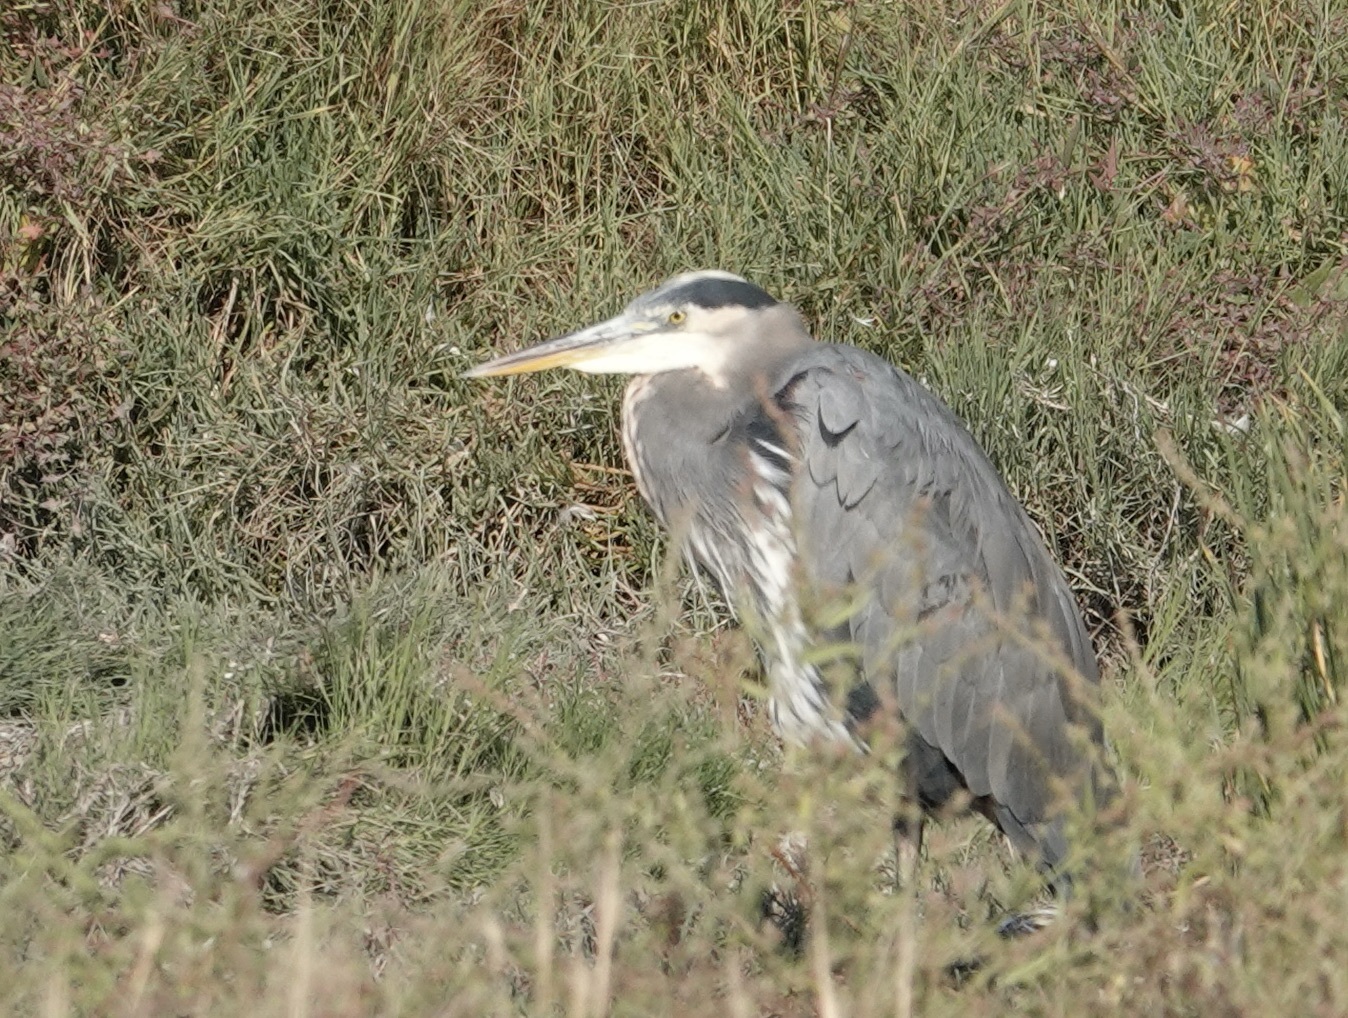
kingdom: Animalia
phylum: Chordata
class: Aves
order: Pelecaniformes
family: Ardeidae
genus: Ardea
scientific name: Ardea herodias
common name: Great blue heron
